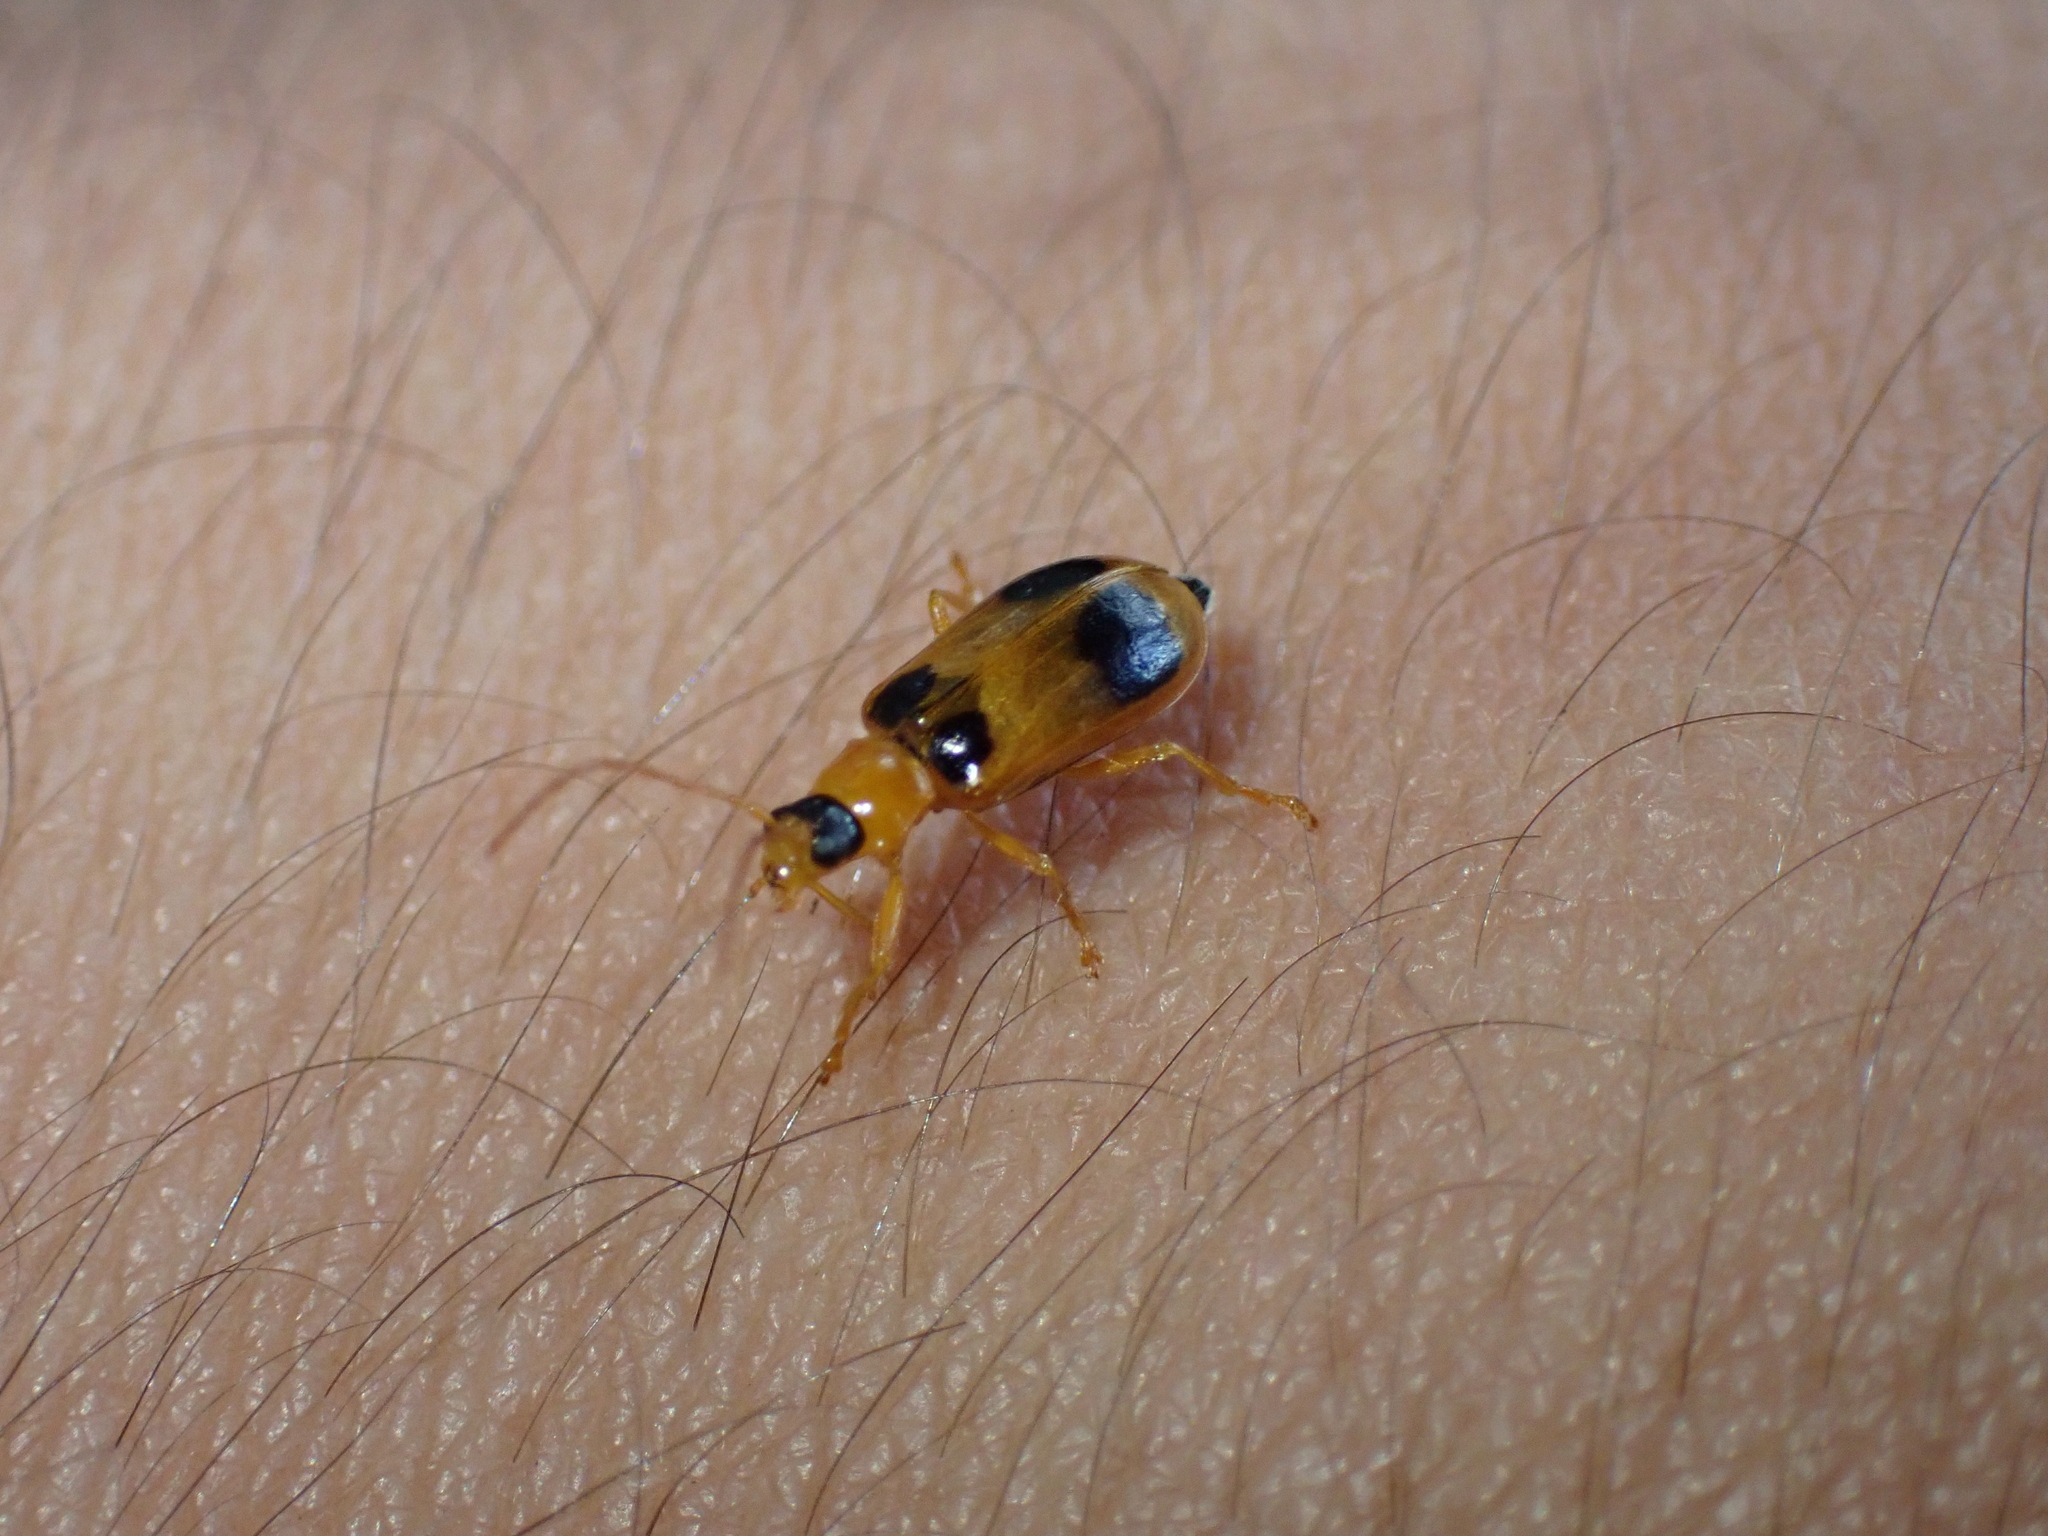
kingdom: Animalia
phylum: Arthropoda
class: Insecta
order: Coleoptera
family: Chrysomelidae
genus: Phyllobrotica
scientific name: Phyllobrotica quadrimaculata
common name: Skullcap leaf beetle
